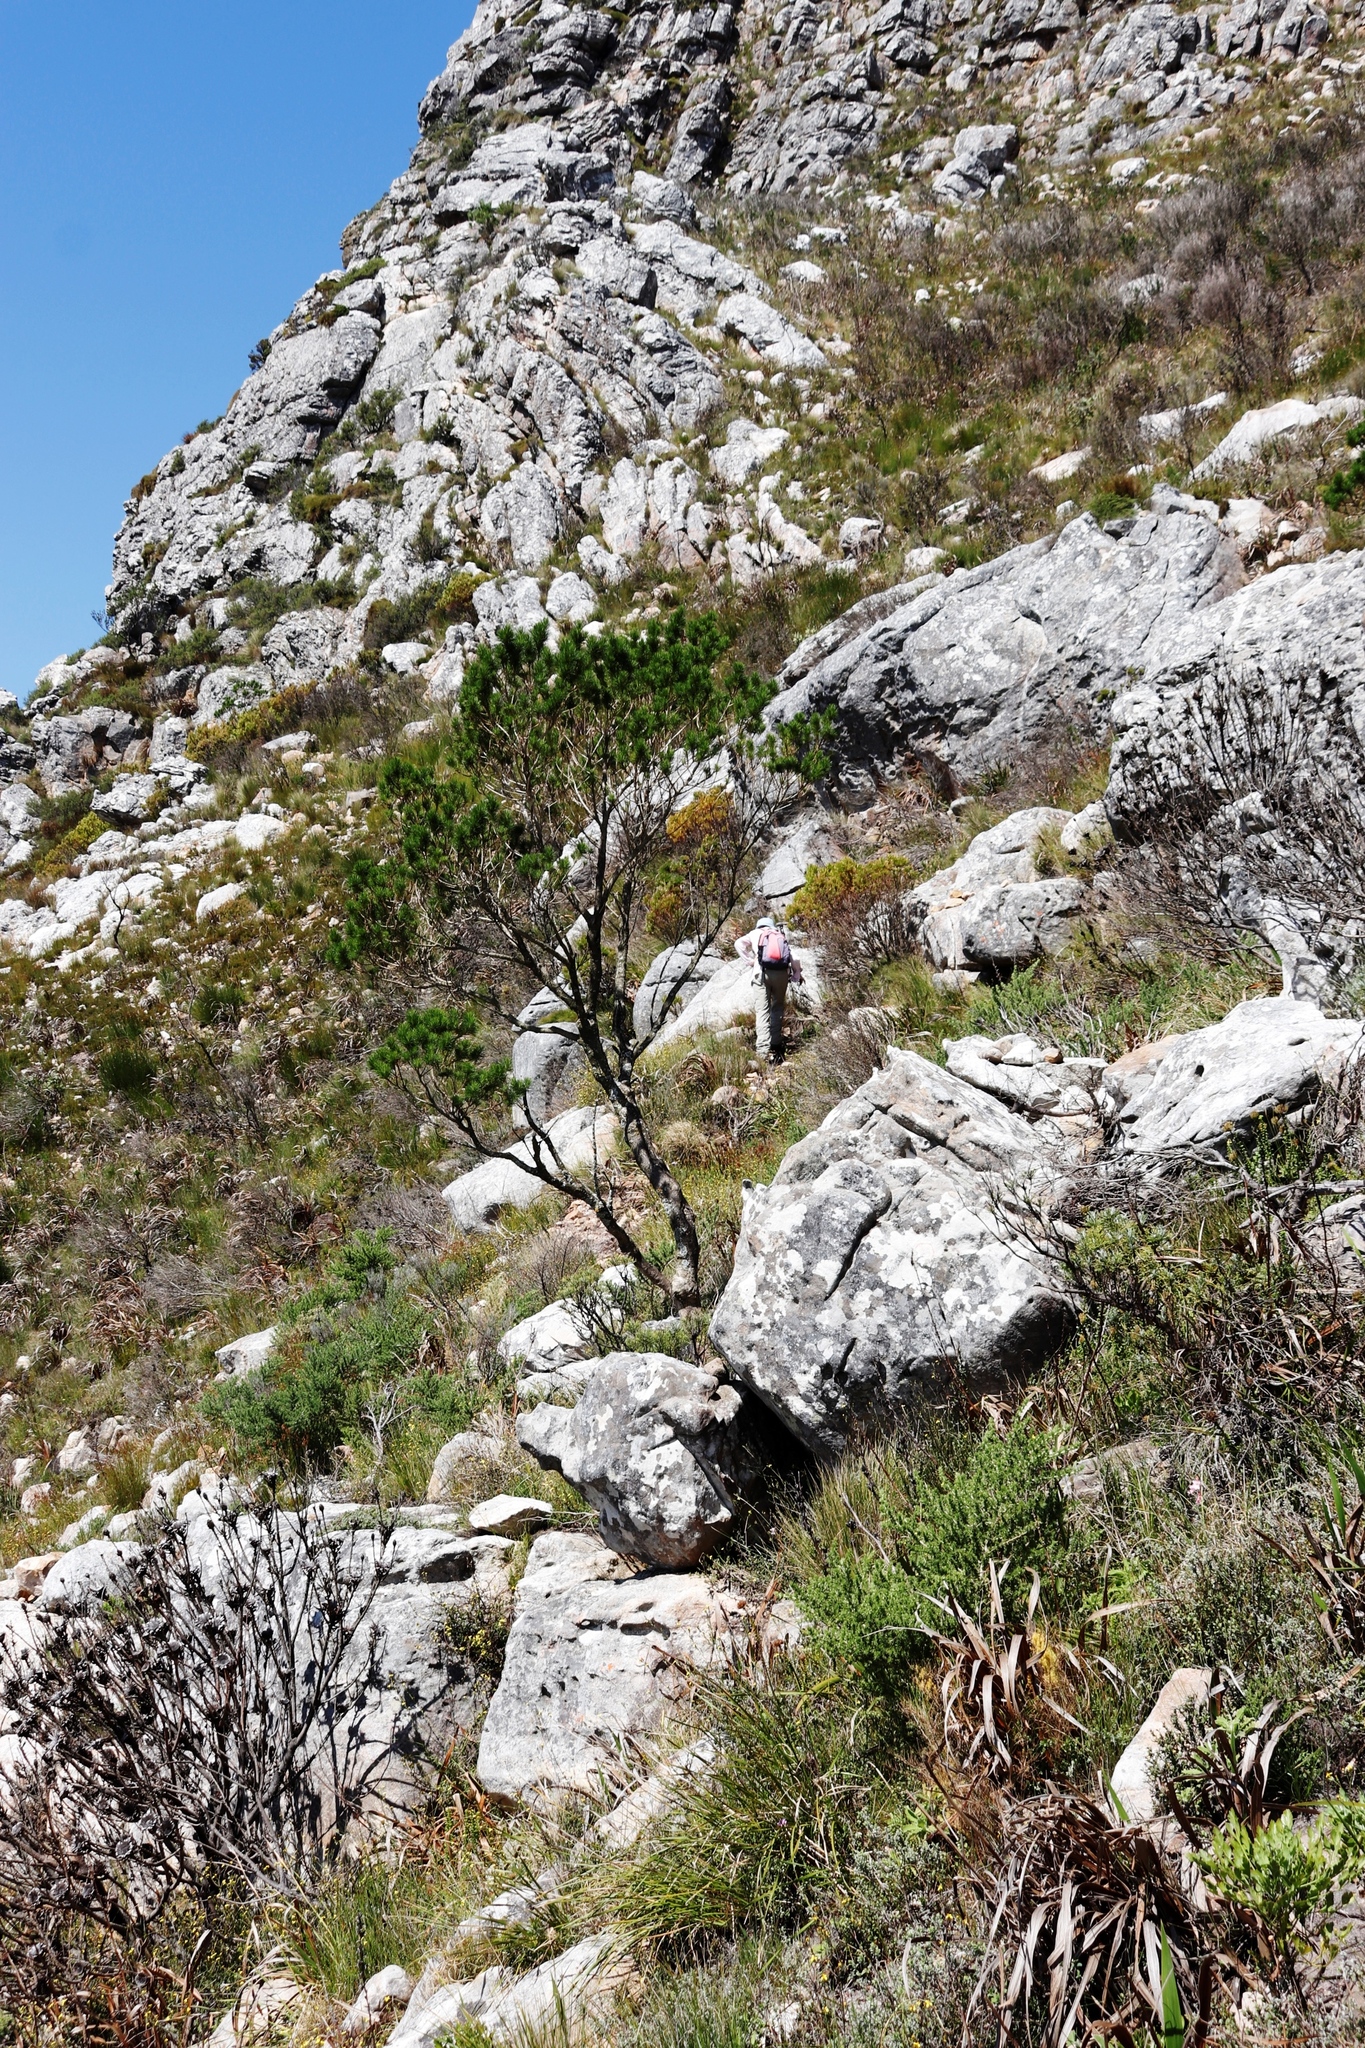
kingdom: Plantae
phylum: Tracheophyta
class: Magnoliopsida
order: Fabales
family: Fabaceae
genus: Psoralea
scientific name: Psoralea pinnata
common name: African scurfpea
